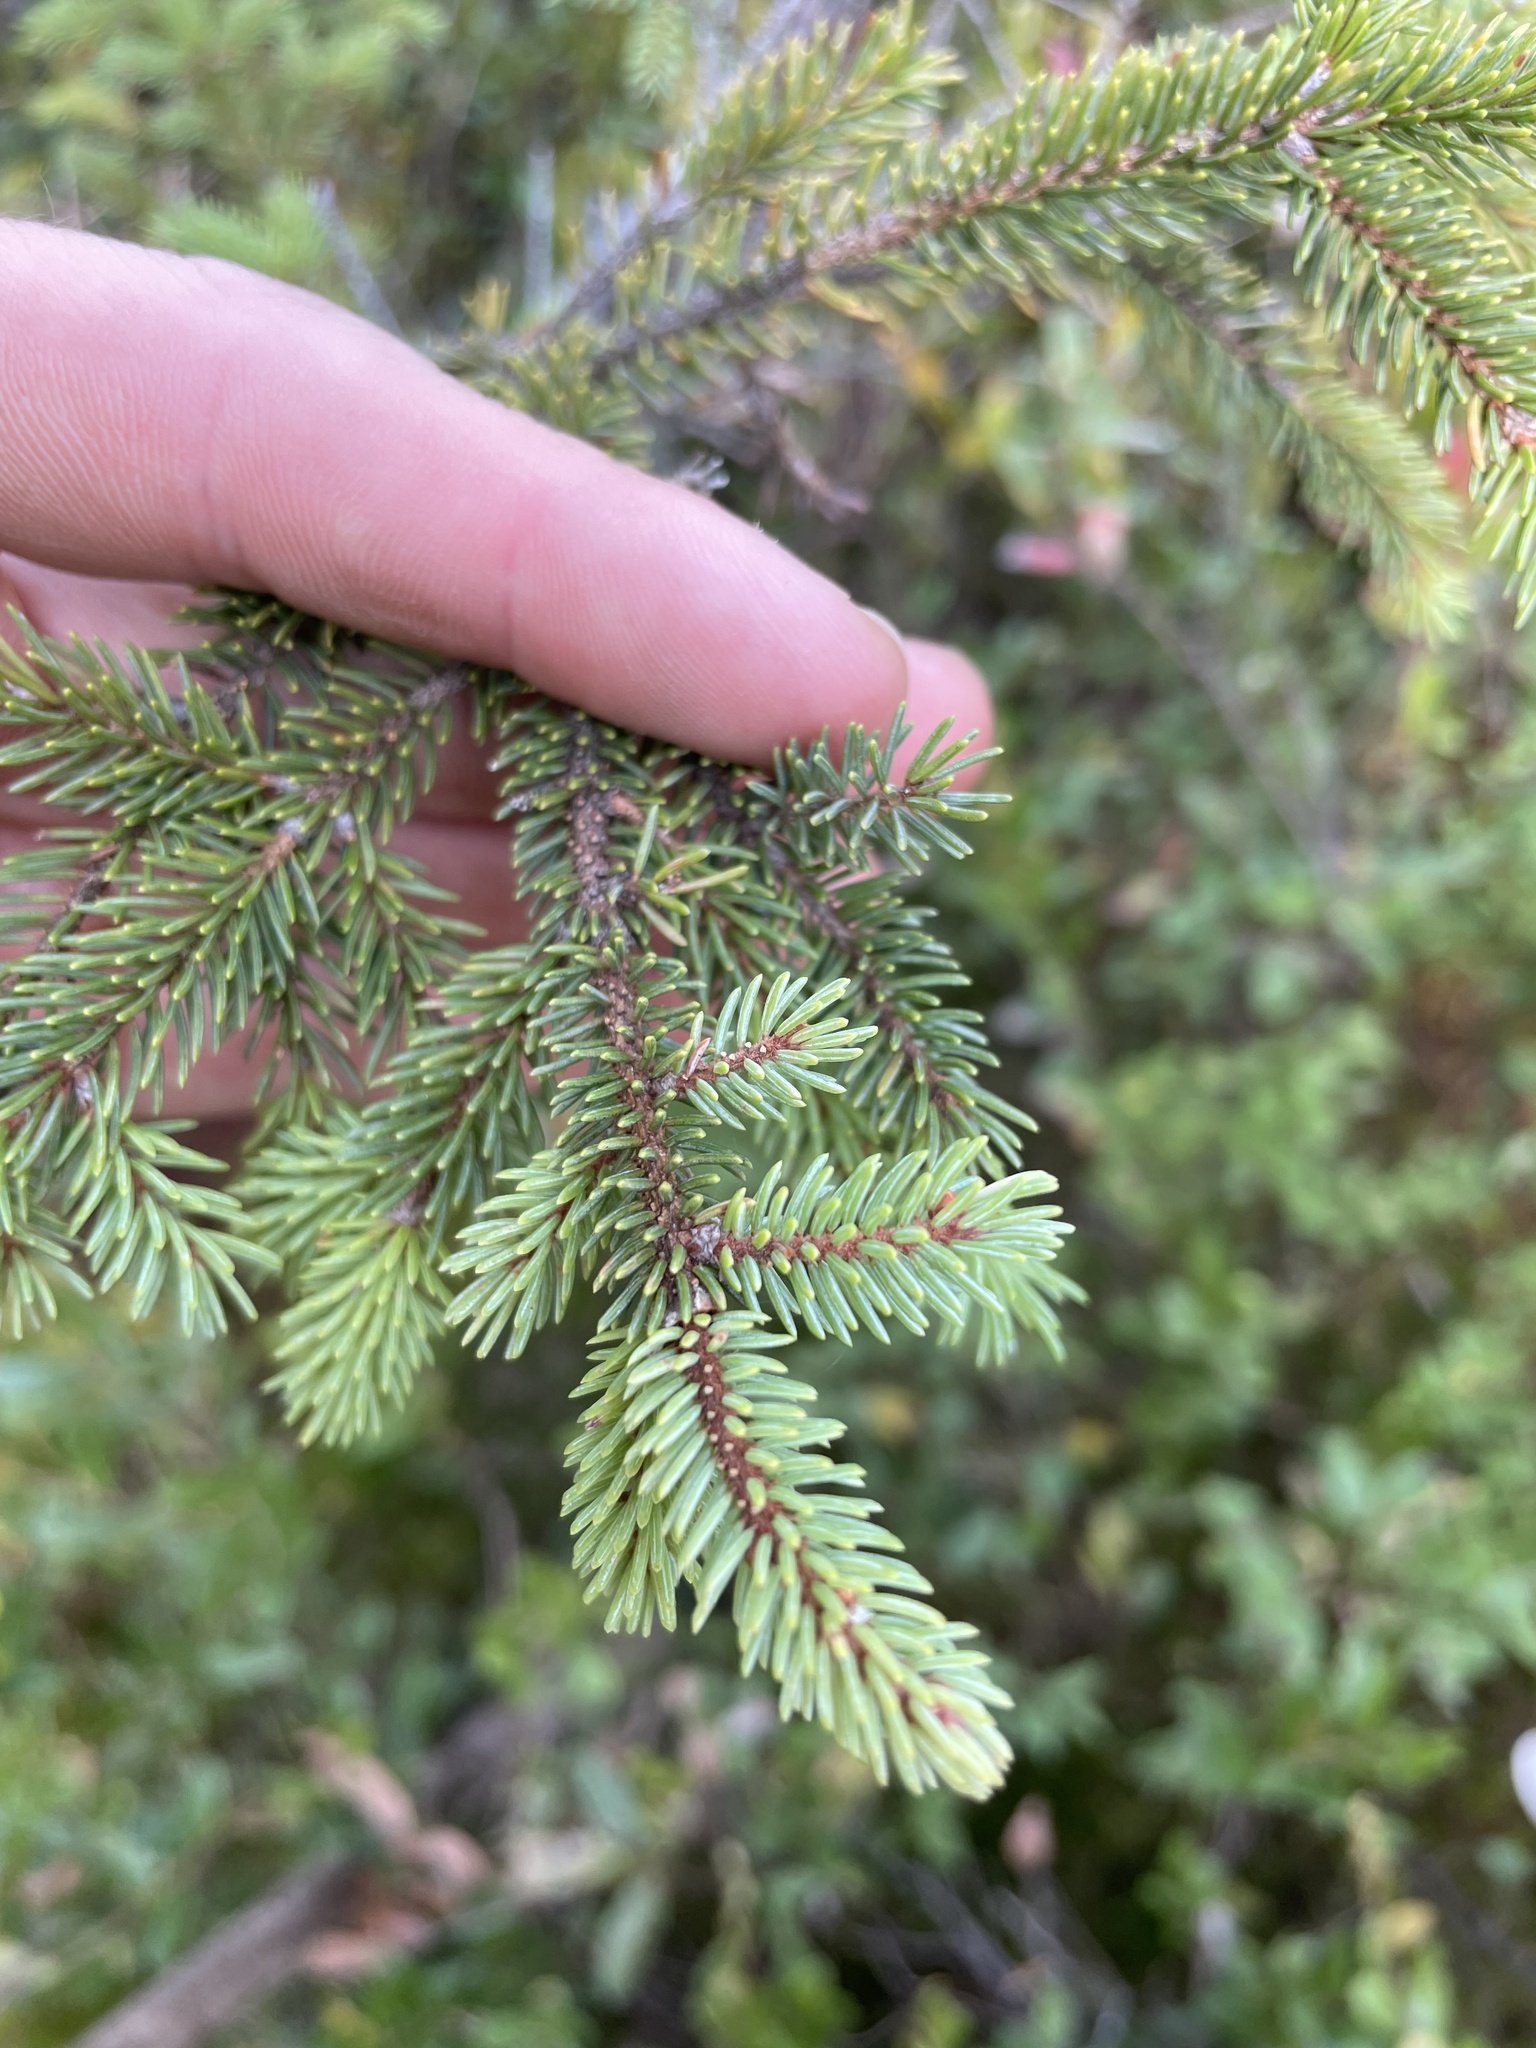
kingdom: Plantae
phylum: Tracheophyta
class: Pinopsida
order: Pinales
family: Pinaceae
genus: Picea
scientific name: Picea mariana
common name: Black spruce
